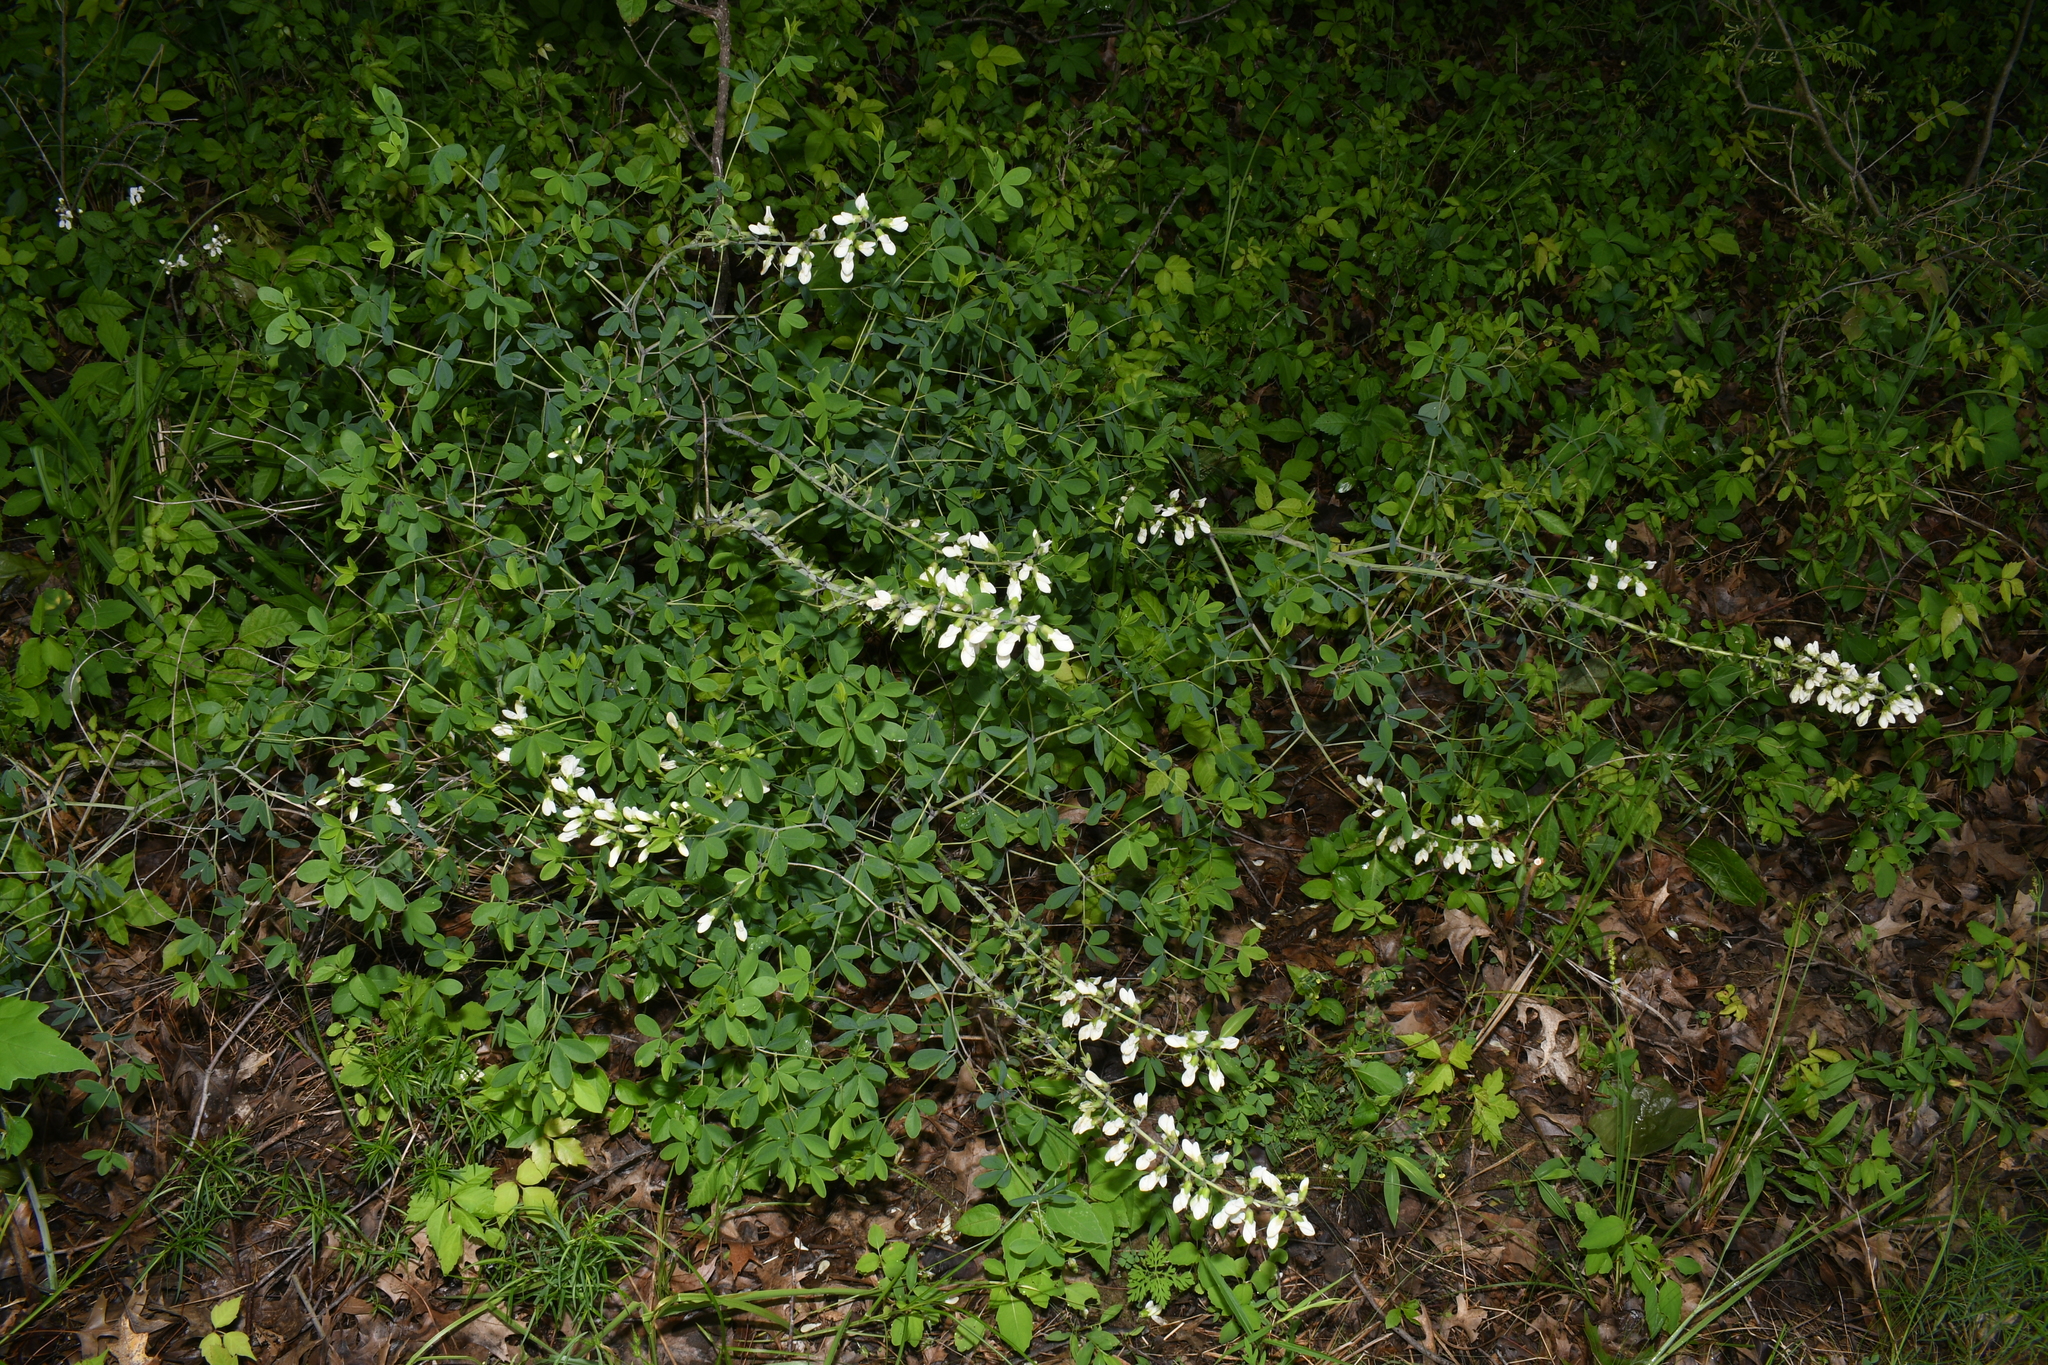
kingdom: Plantae
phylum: Tracheophyta
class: Magnoliopsida
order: Fabales
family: Fabaceae
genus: Baptisia
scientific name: Baptisia alba
